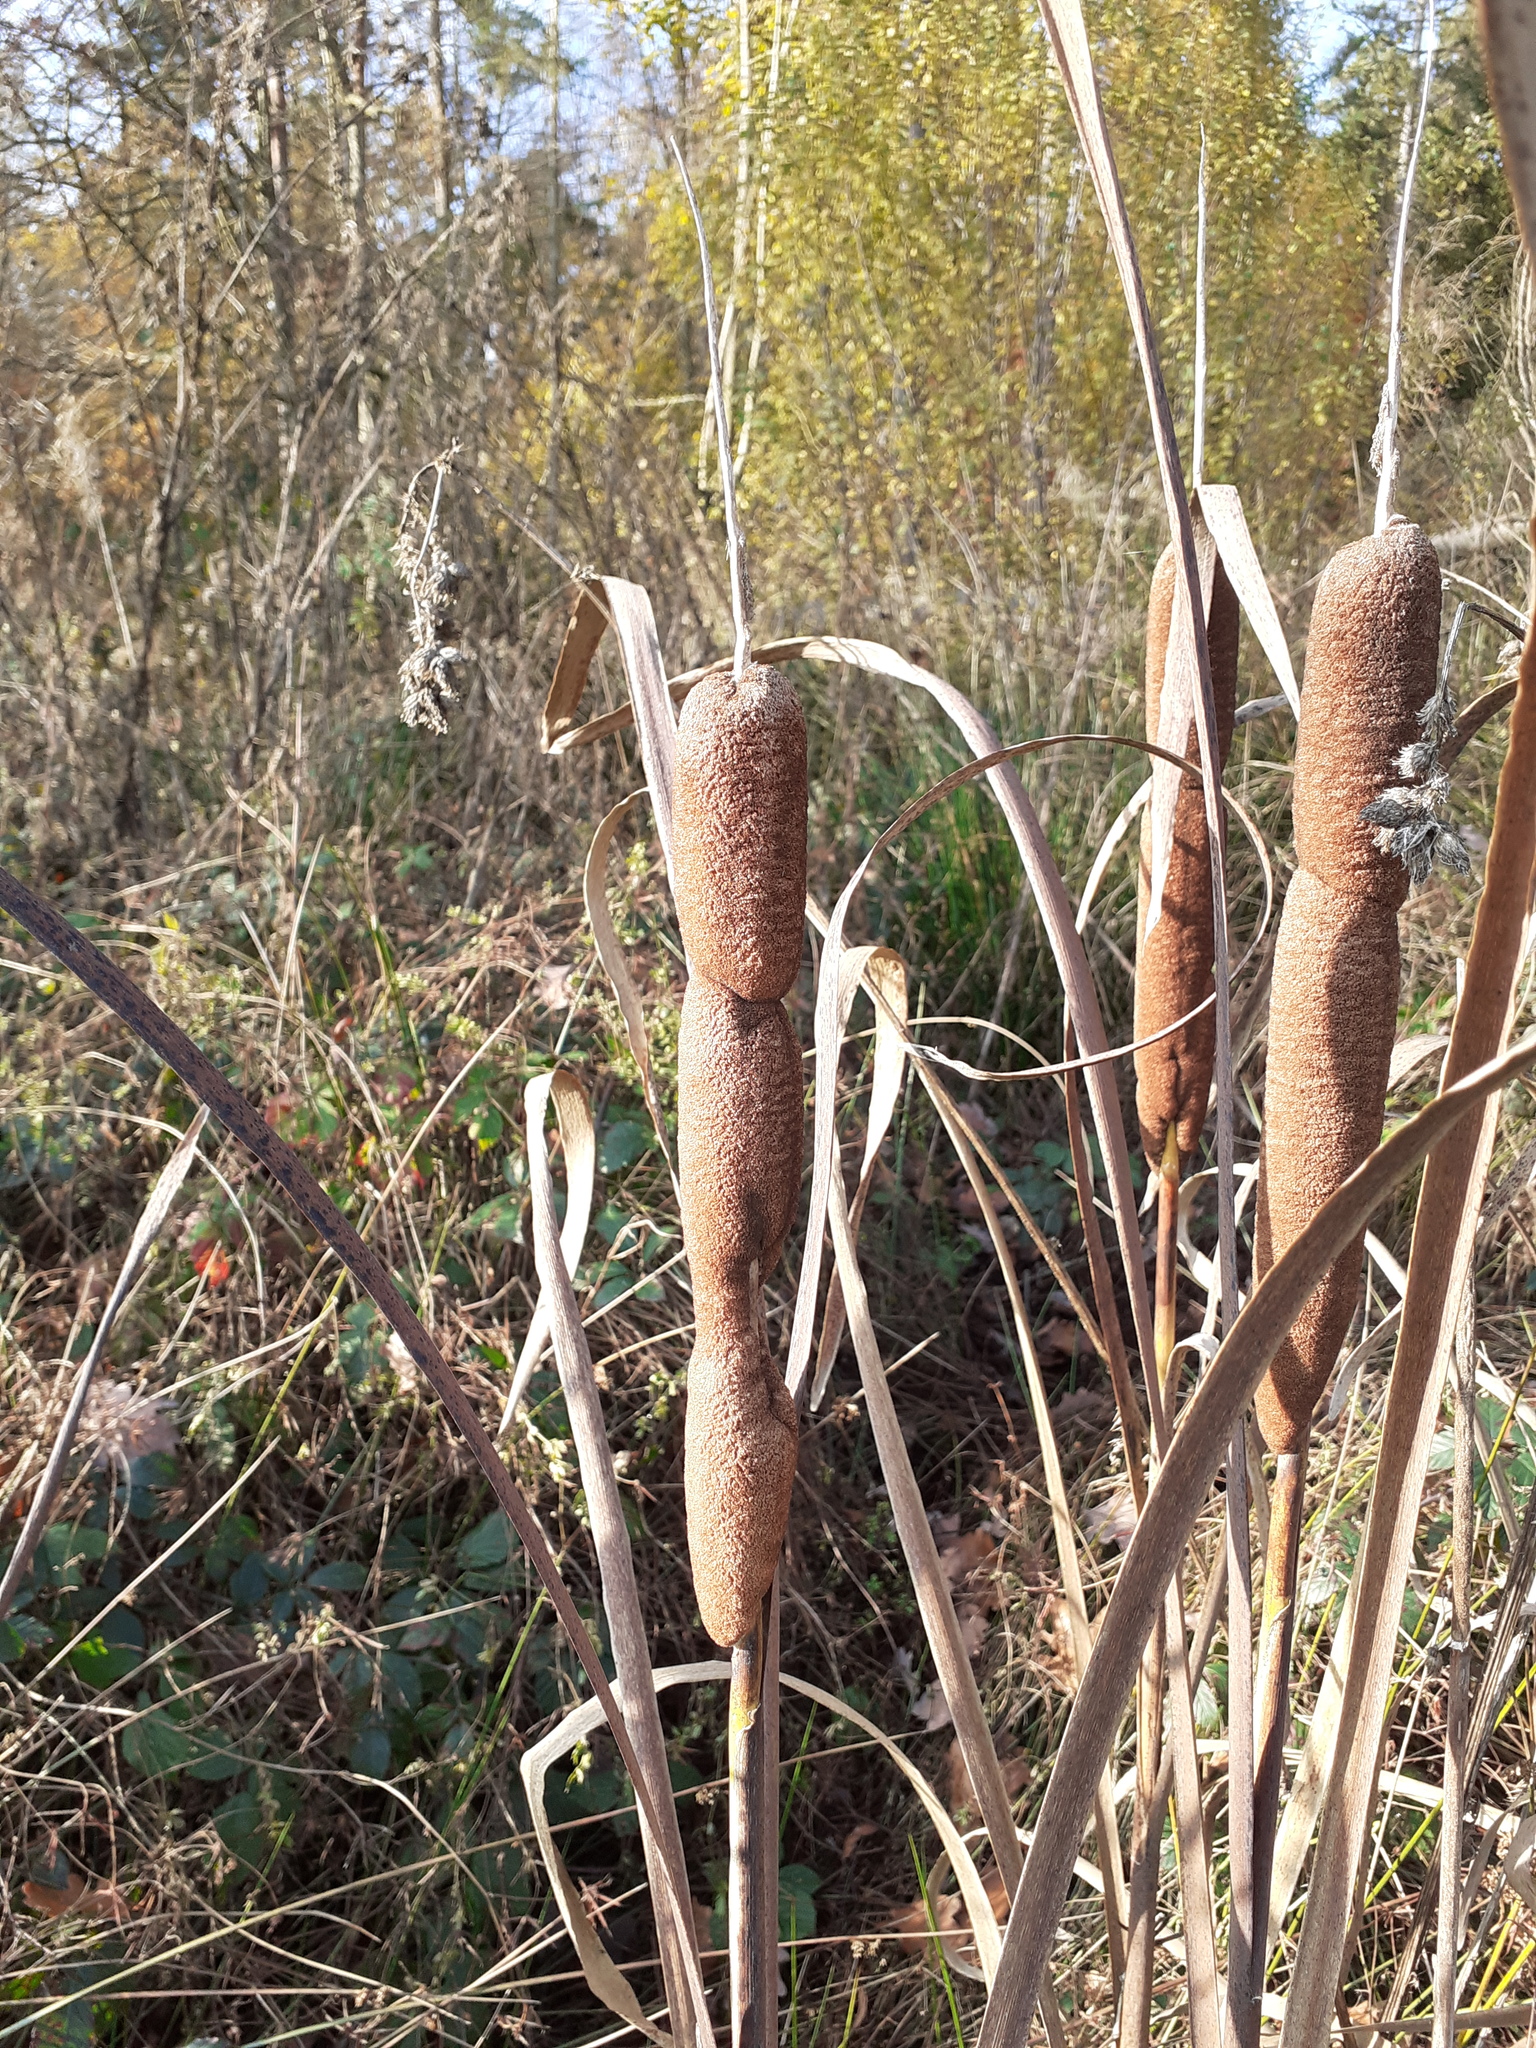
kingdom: Plantae
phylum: Tracheophyta
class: Liliopsida
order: Poales
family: Typhaceae
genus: Typha
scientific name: Typha latifolia
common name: Broadleaf cattail
